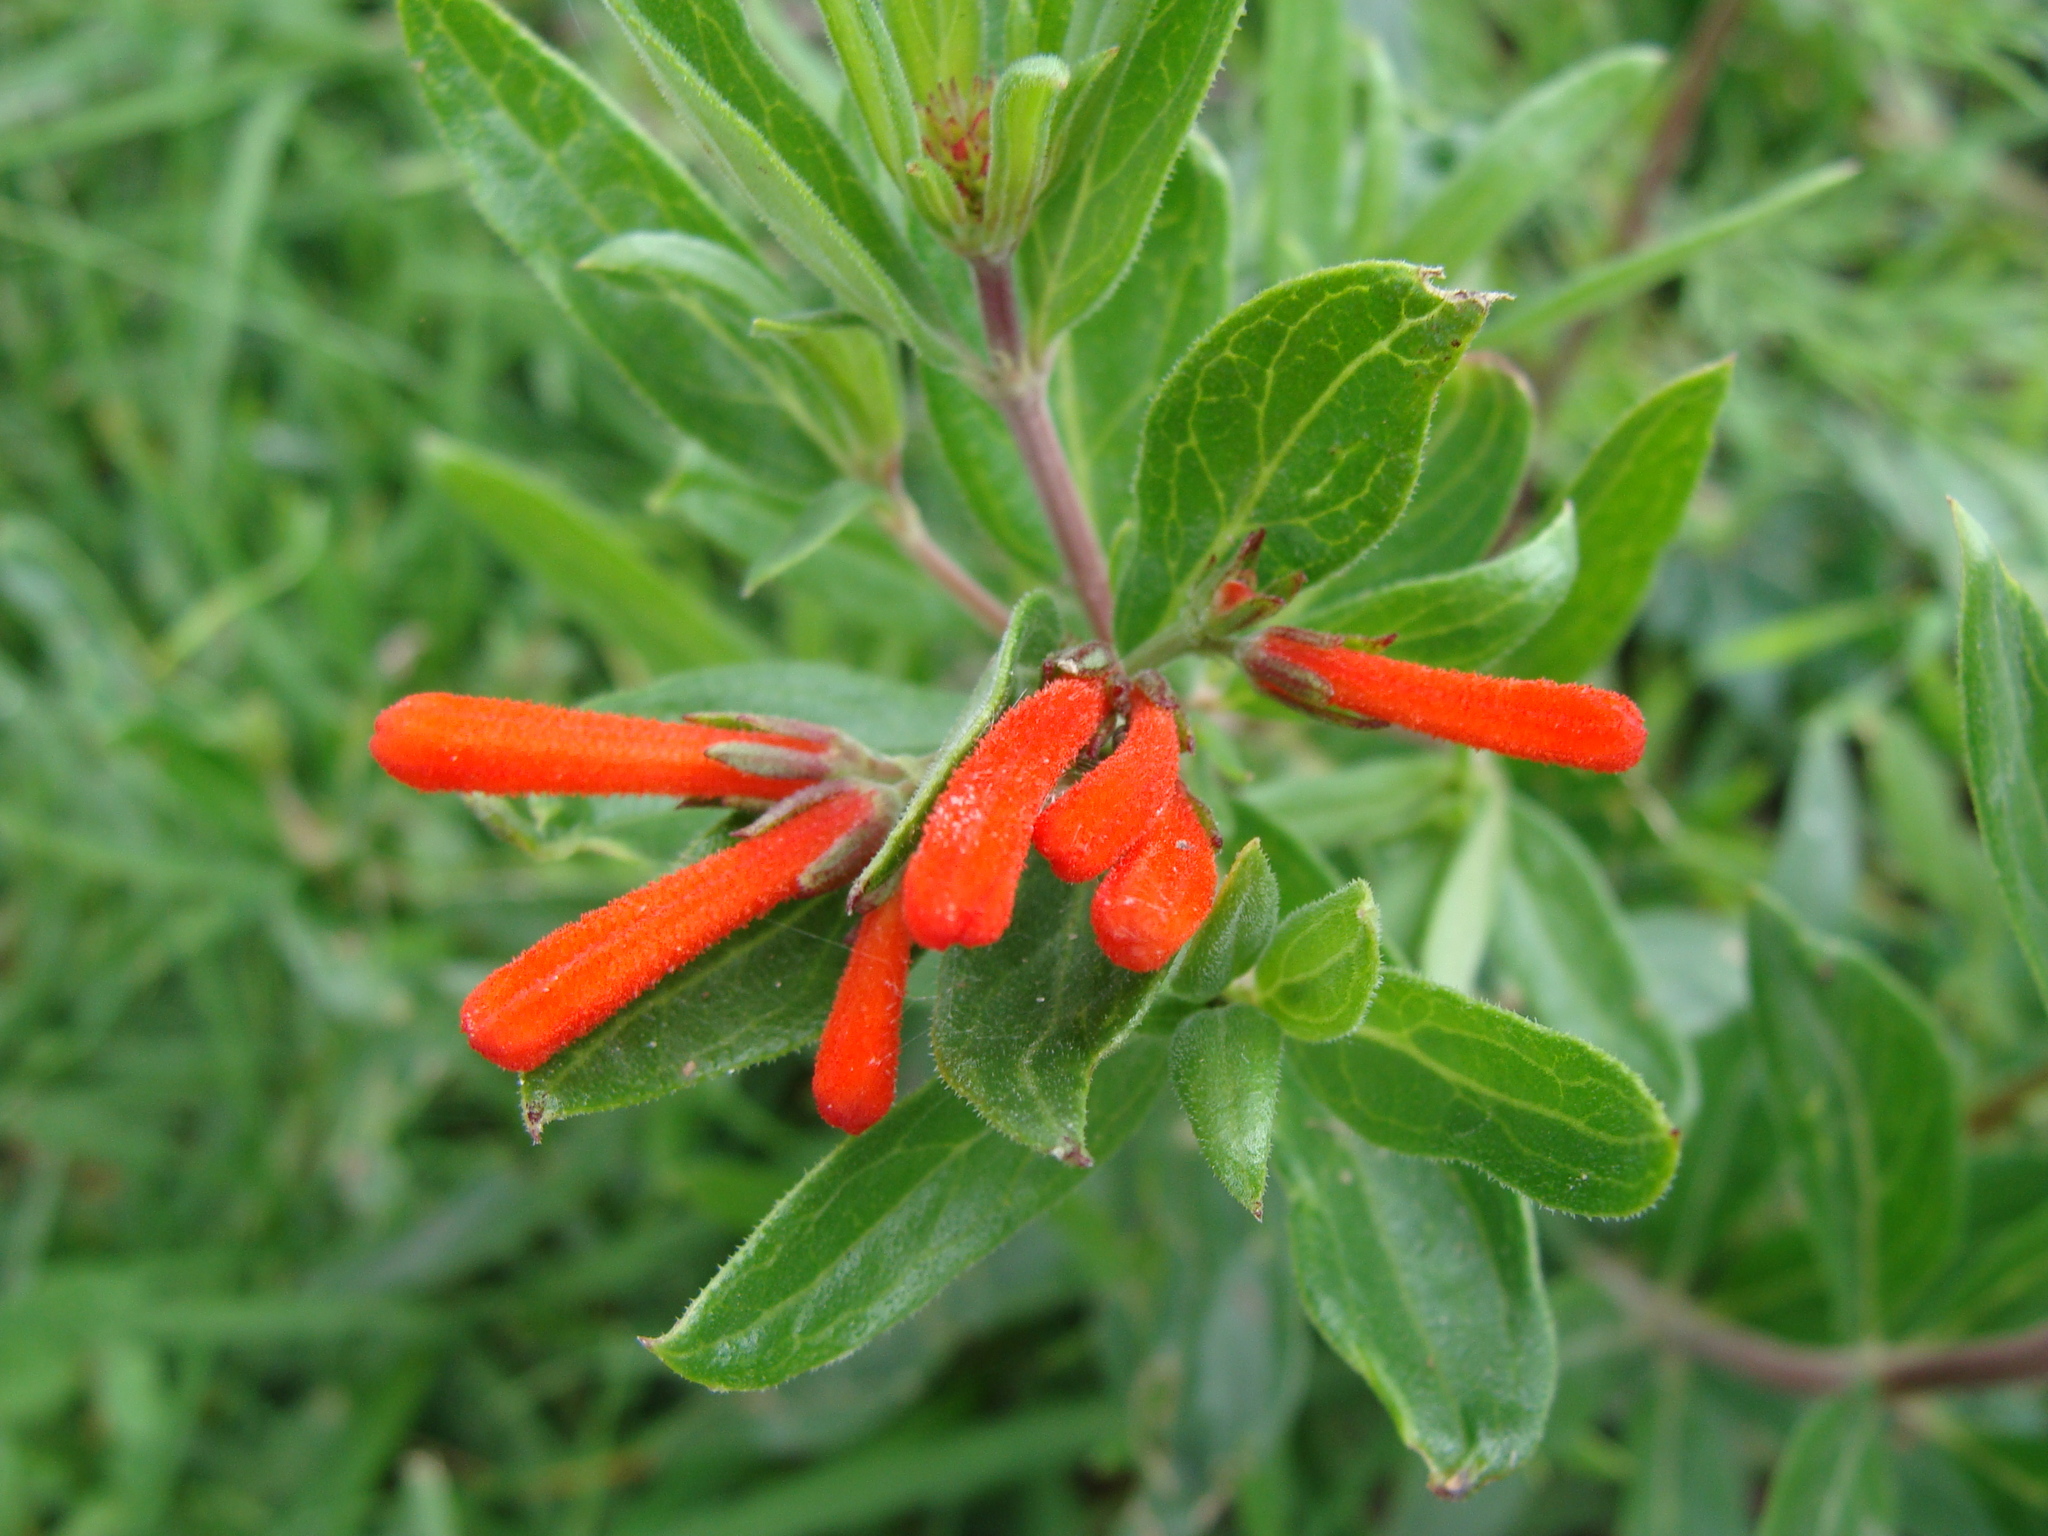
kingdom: Plantae
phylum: Tracheophyta
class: Magnoliopsida
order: Gentianales
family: Rubiaceae
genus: Bouvardia
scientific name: Bouvardia ternifolia
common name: Scarlet bouvardia
